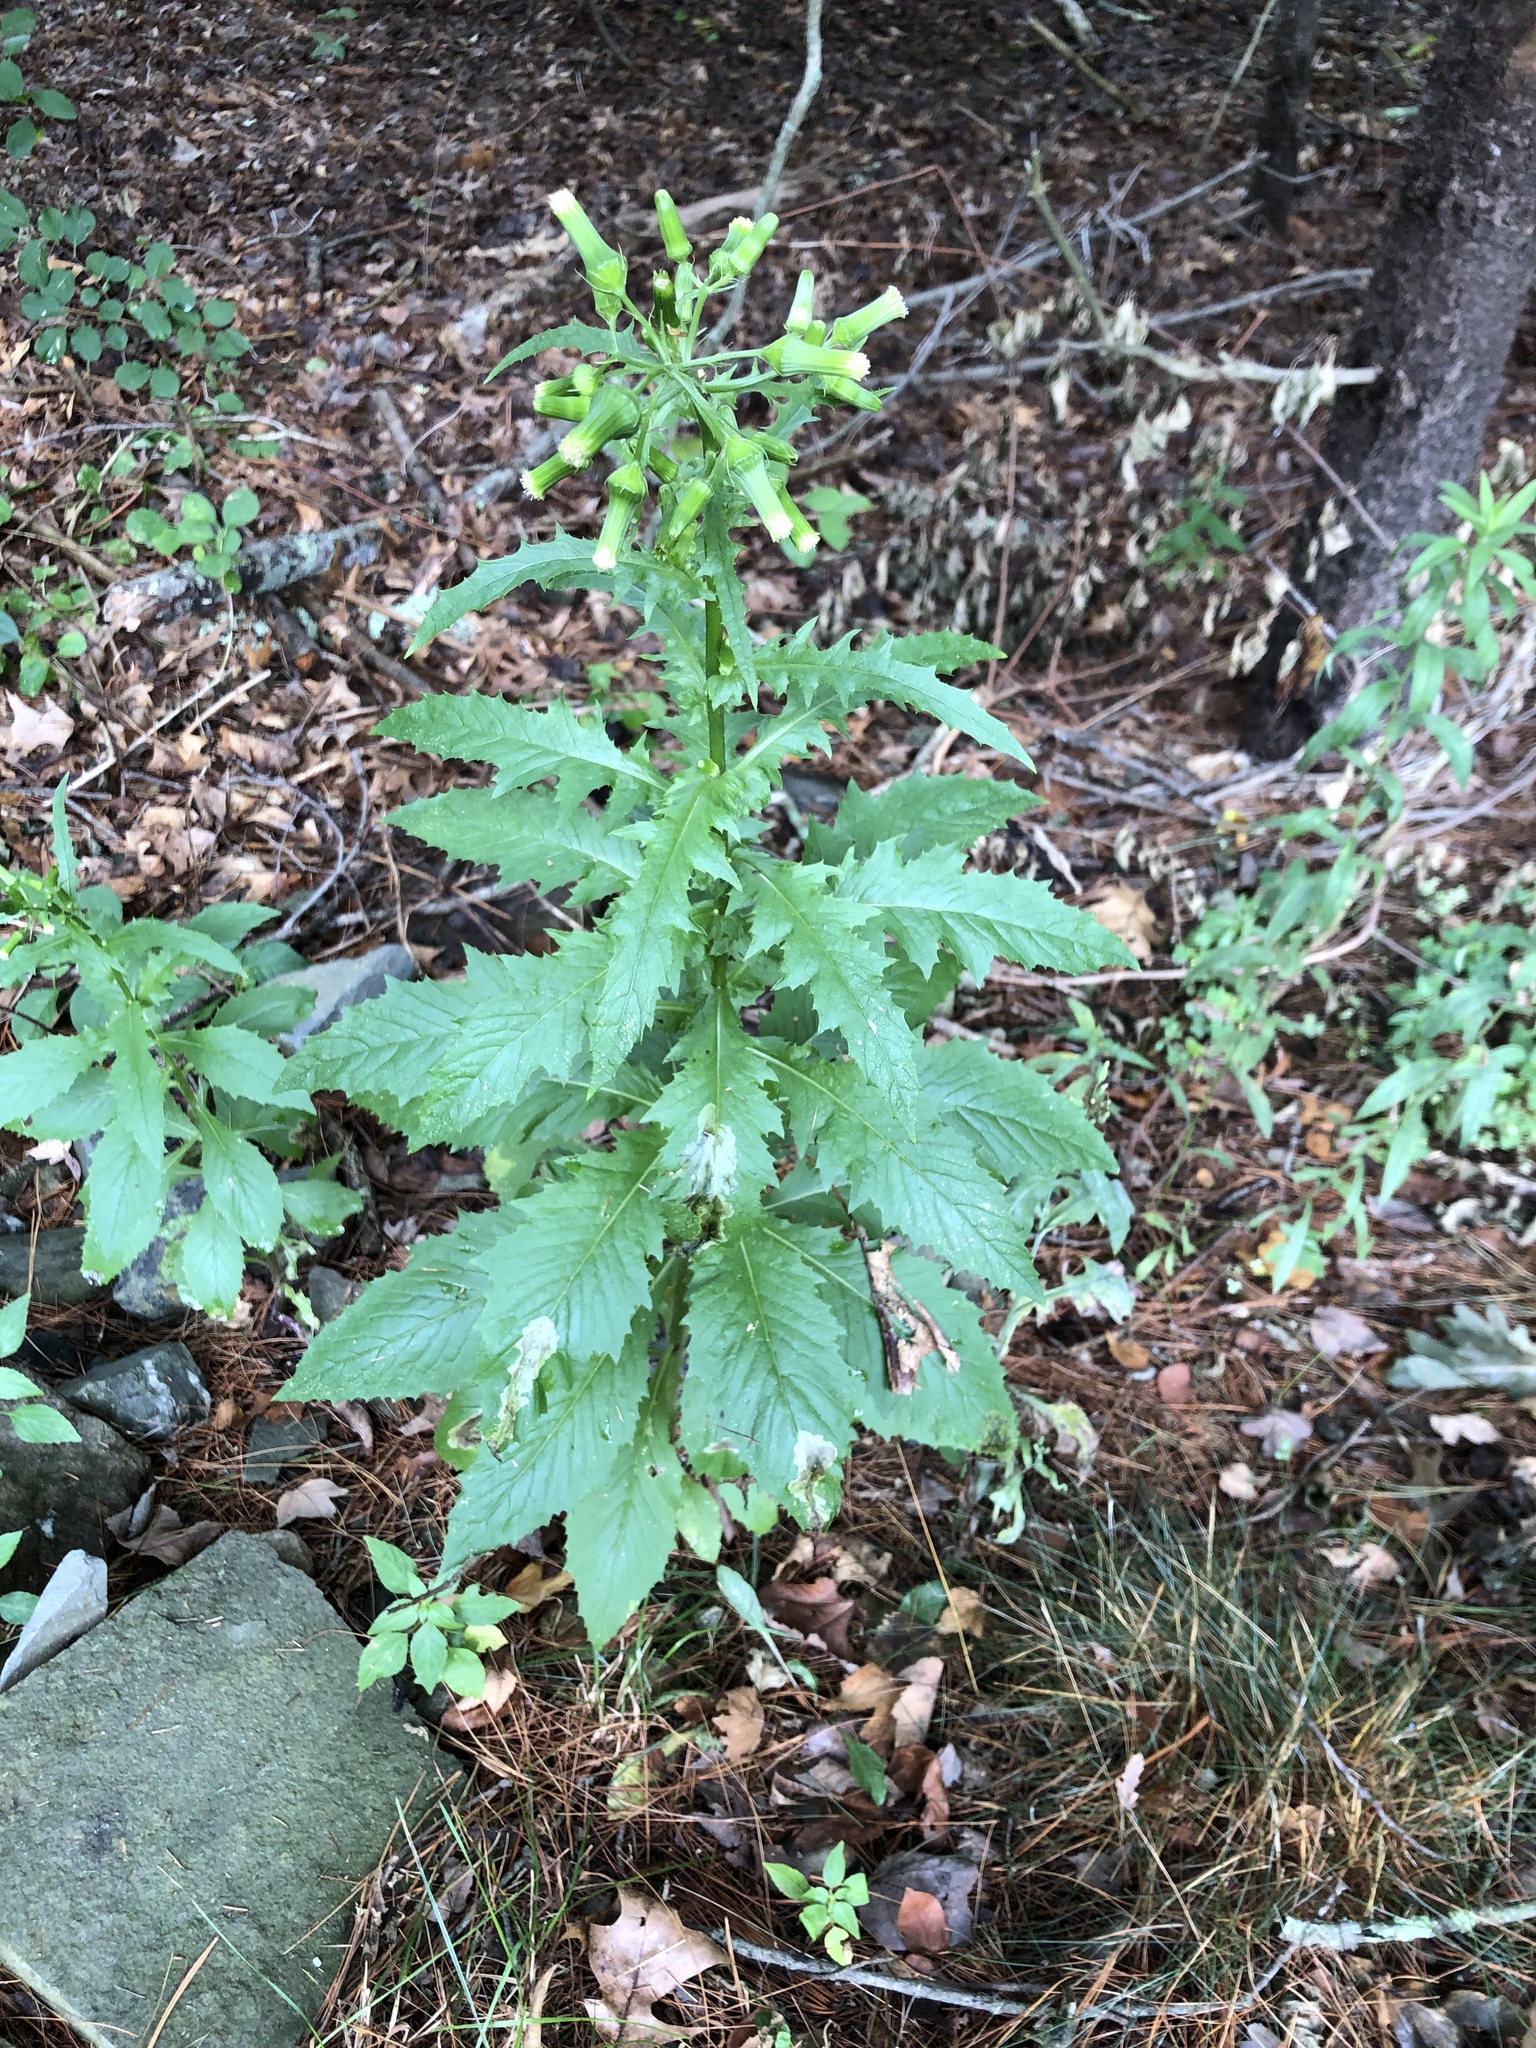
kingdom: Plantae
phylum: Tracheophyta
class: Magnoliopsida
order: Asterales
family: Asteraceae
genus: Erechtites
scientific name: Erechtites hieraciifolius
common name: American burnweed
